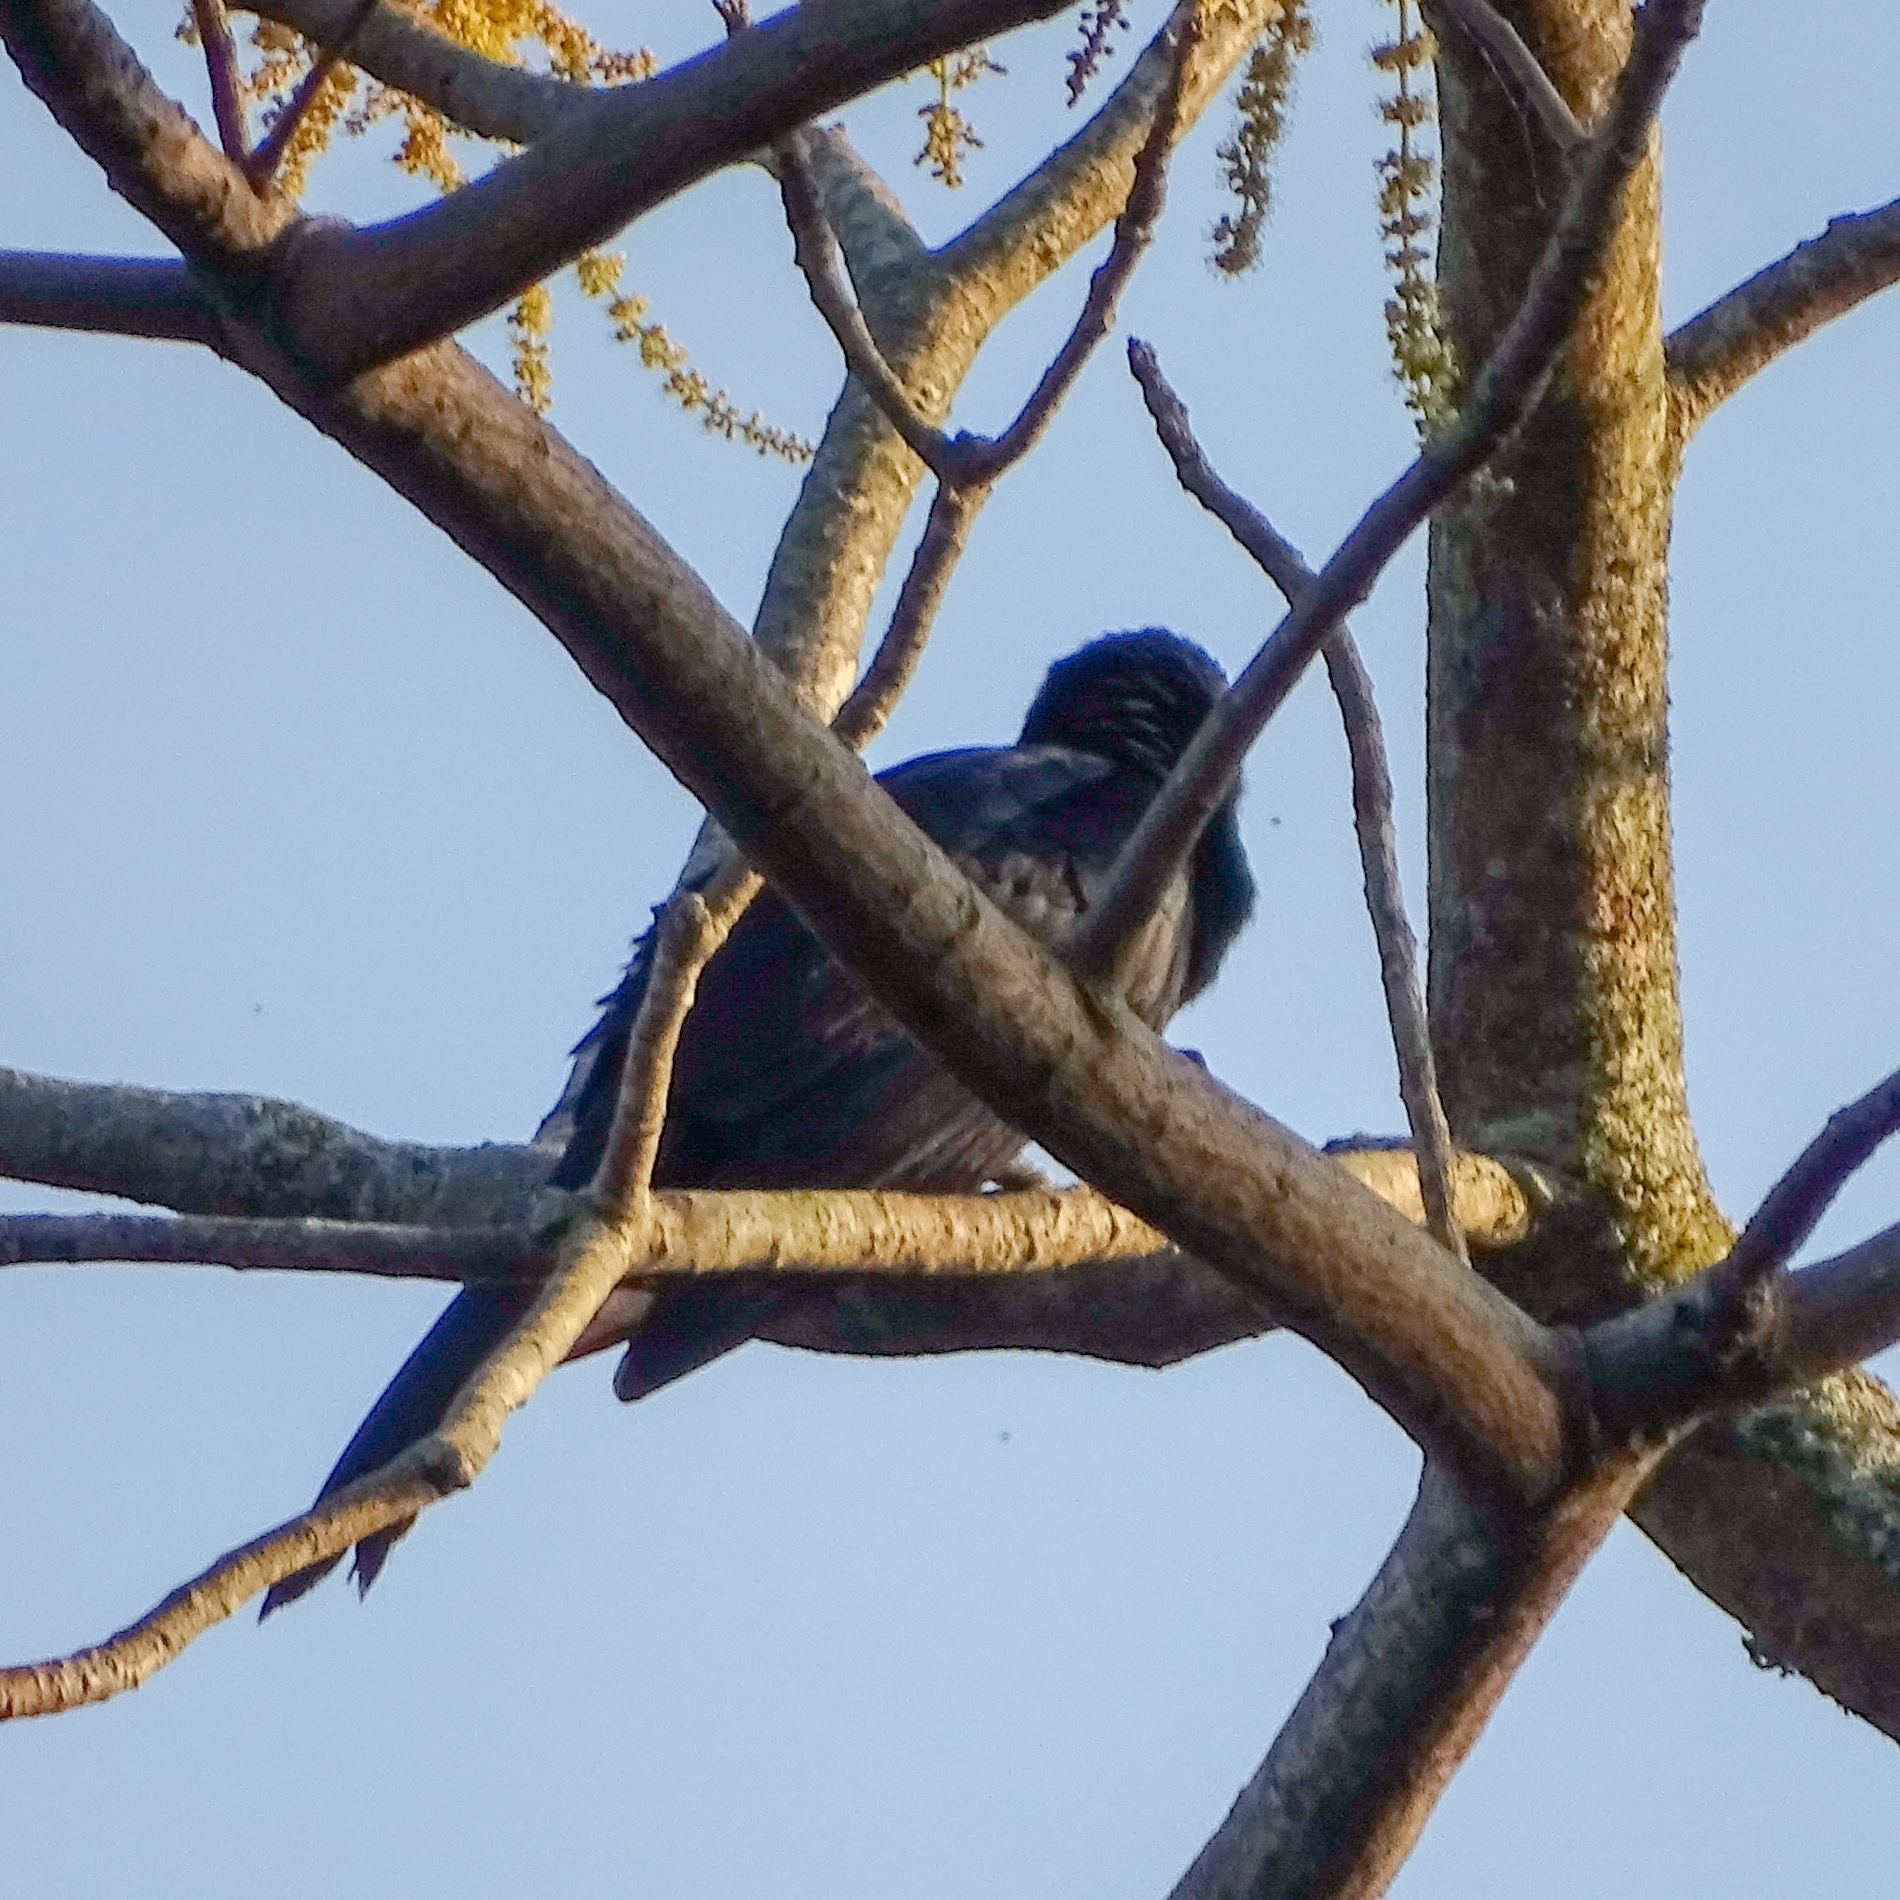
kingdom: Animalia
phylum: Chordata
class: Aves
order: Cuculiformes
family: Cuculidae
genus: Eudynamys
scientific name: Eudynamys scolopaceus
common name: Asian koel
